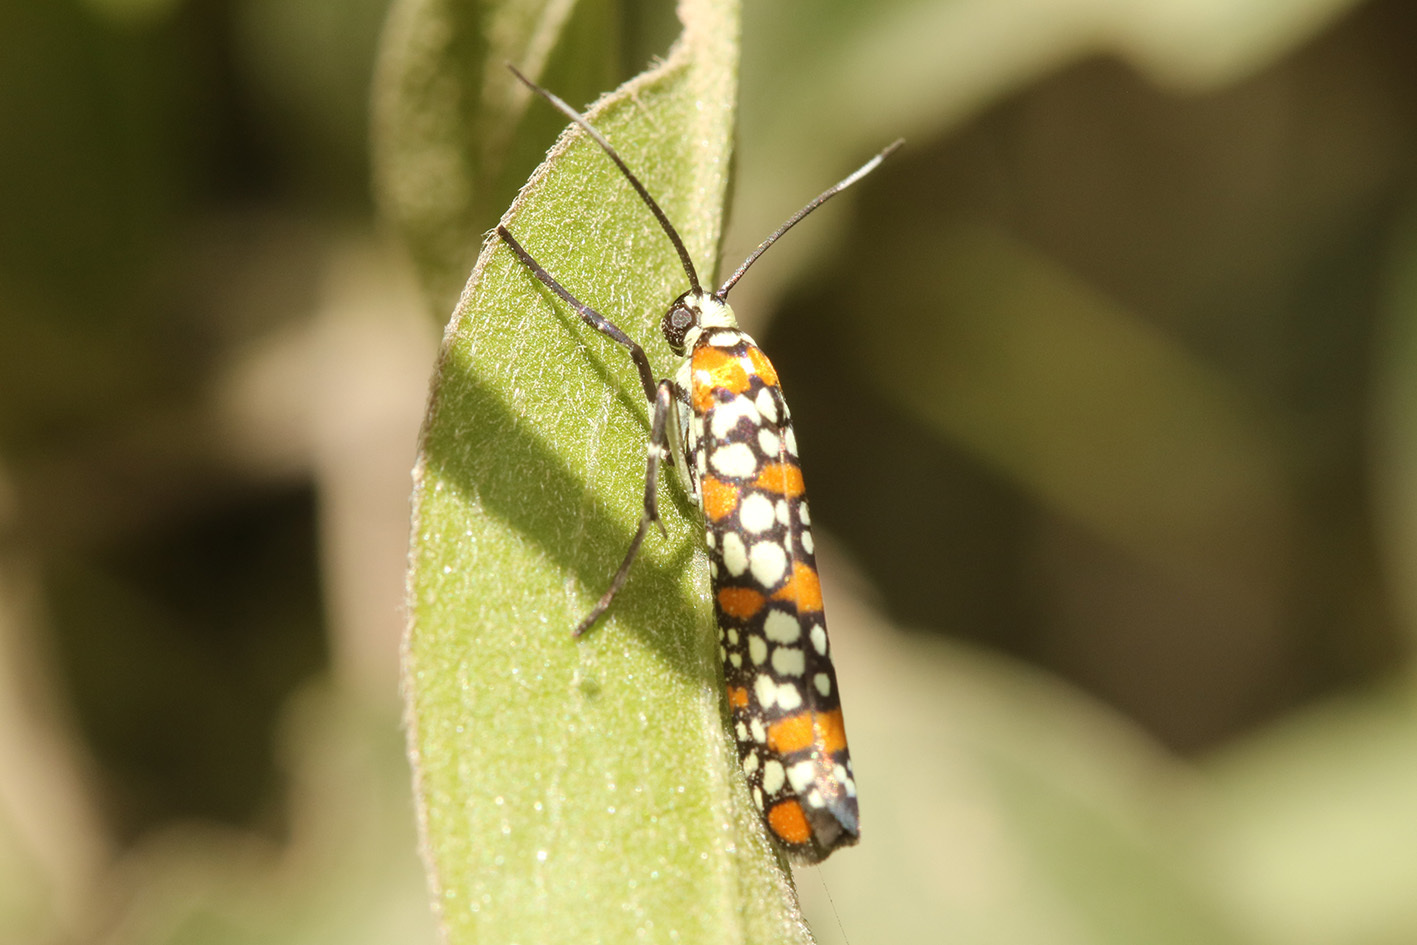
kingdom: Animalia
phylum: Arthropoda
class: Insecta
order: Lepidoptera
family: Attevidae
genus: Atteva
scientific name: Atteva punctella
